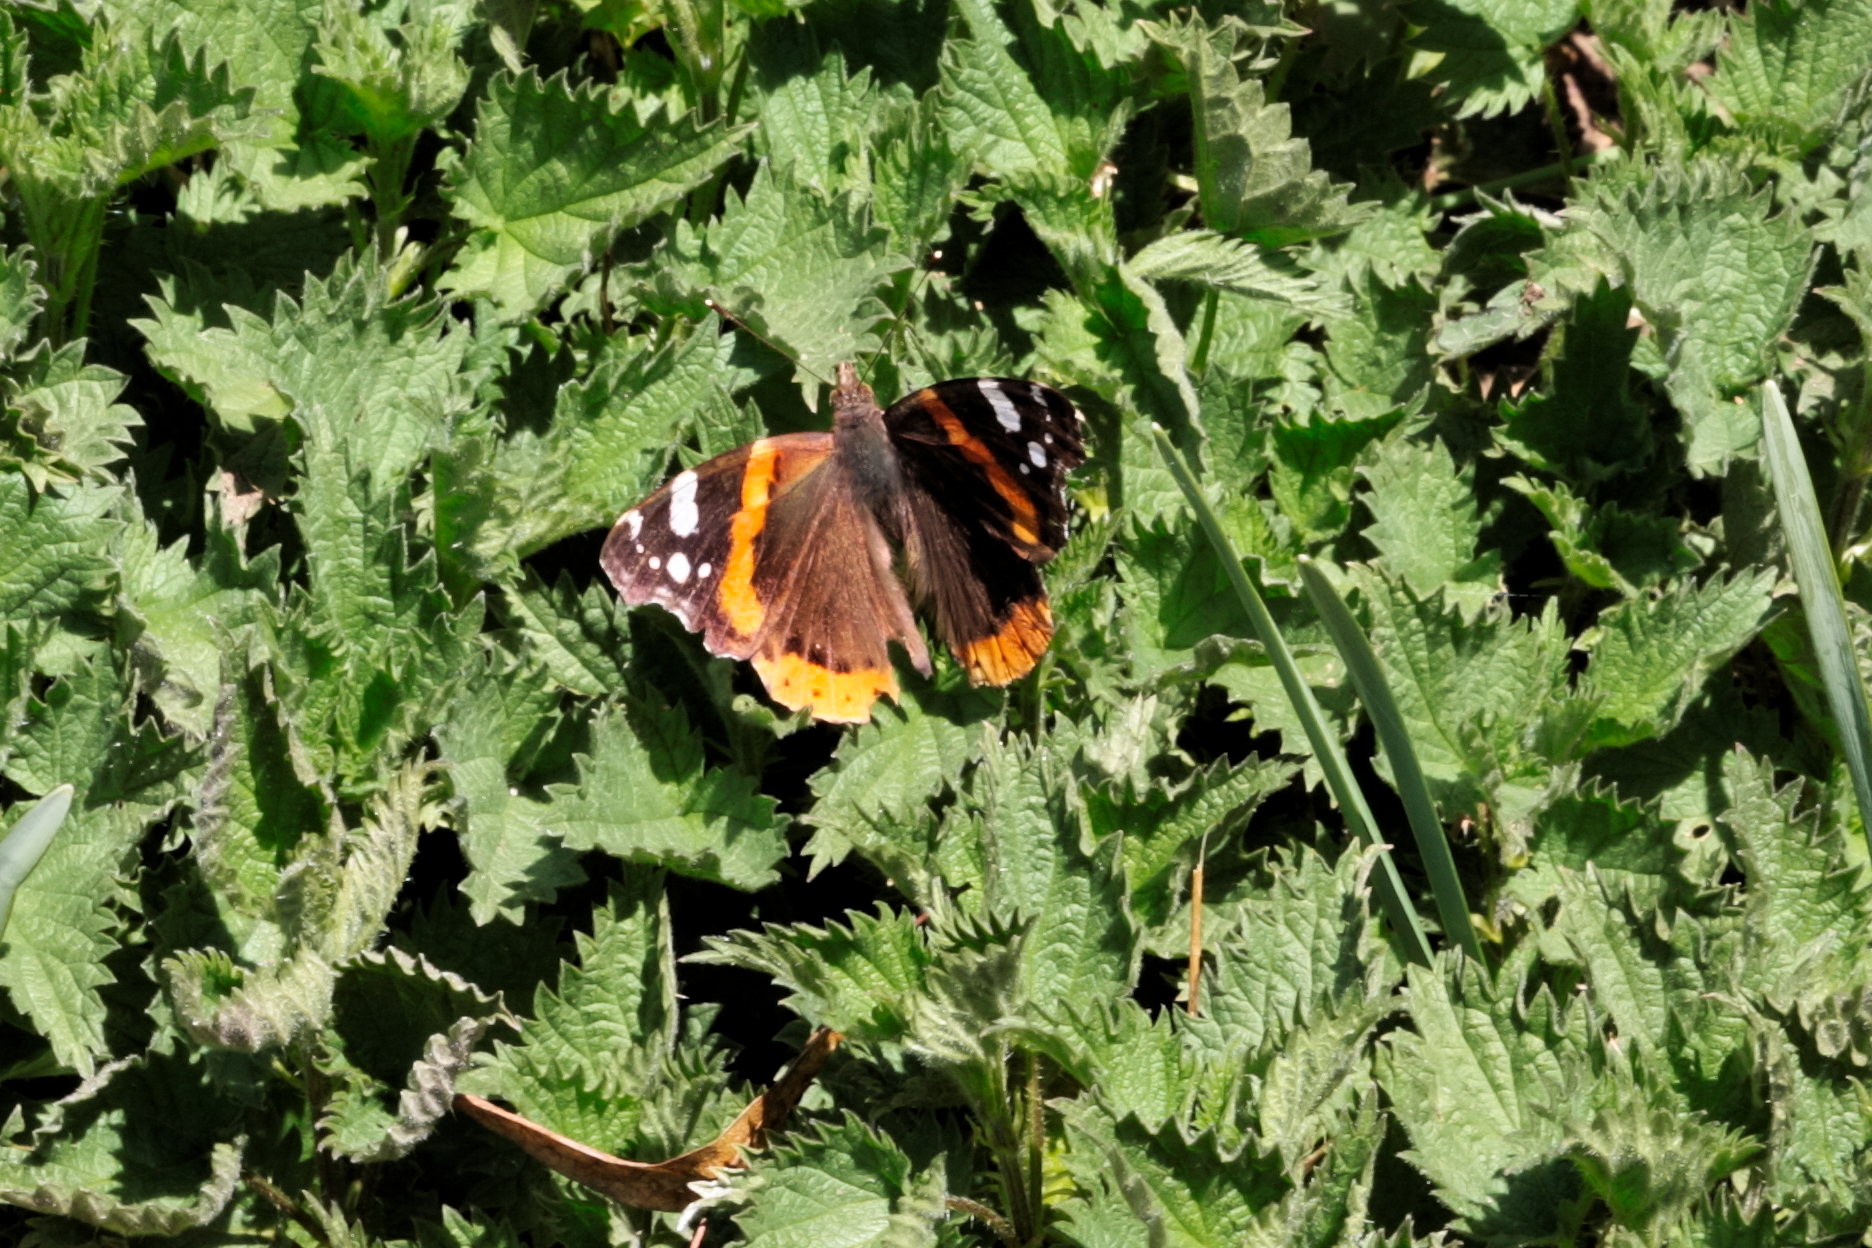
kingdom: Animalia
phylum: Arthropoda
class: Insecta
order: Lepidoptera
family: Nymphalidae
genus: Vanessa
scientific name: Vanessa atalanta
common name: Red admiral
